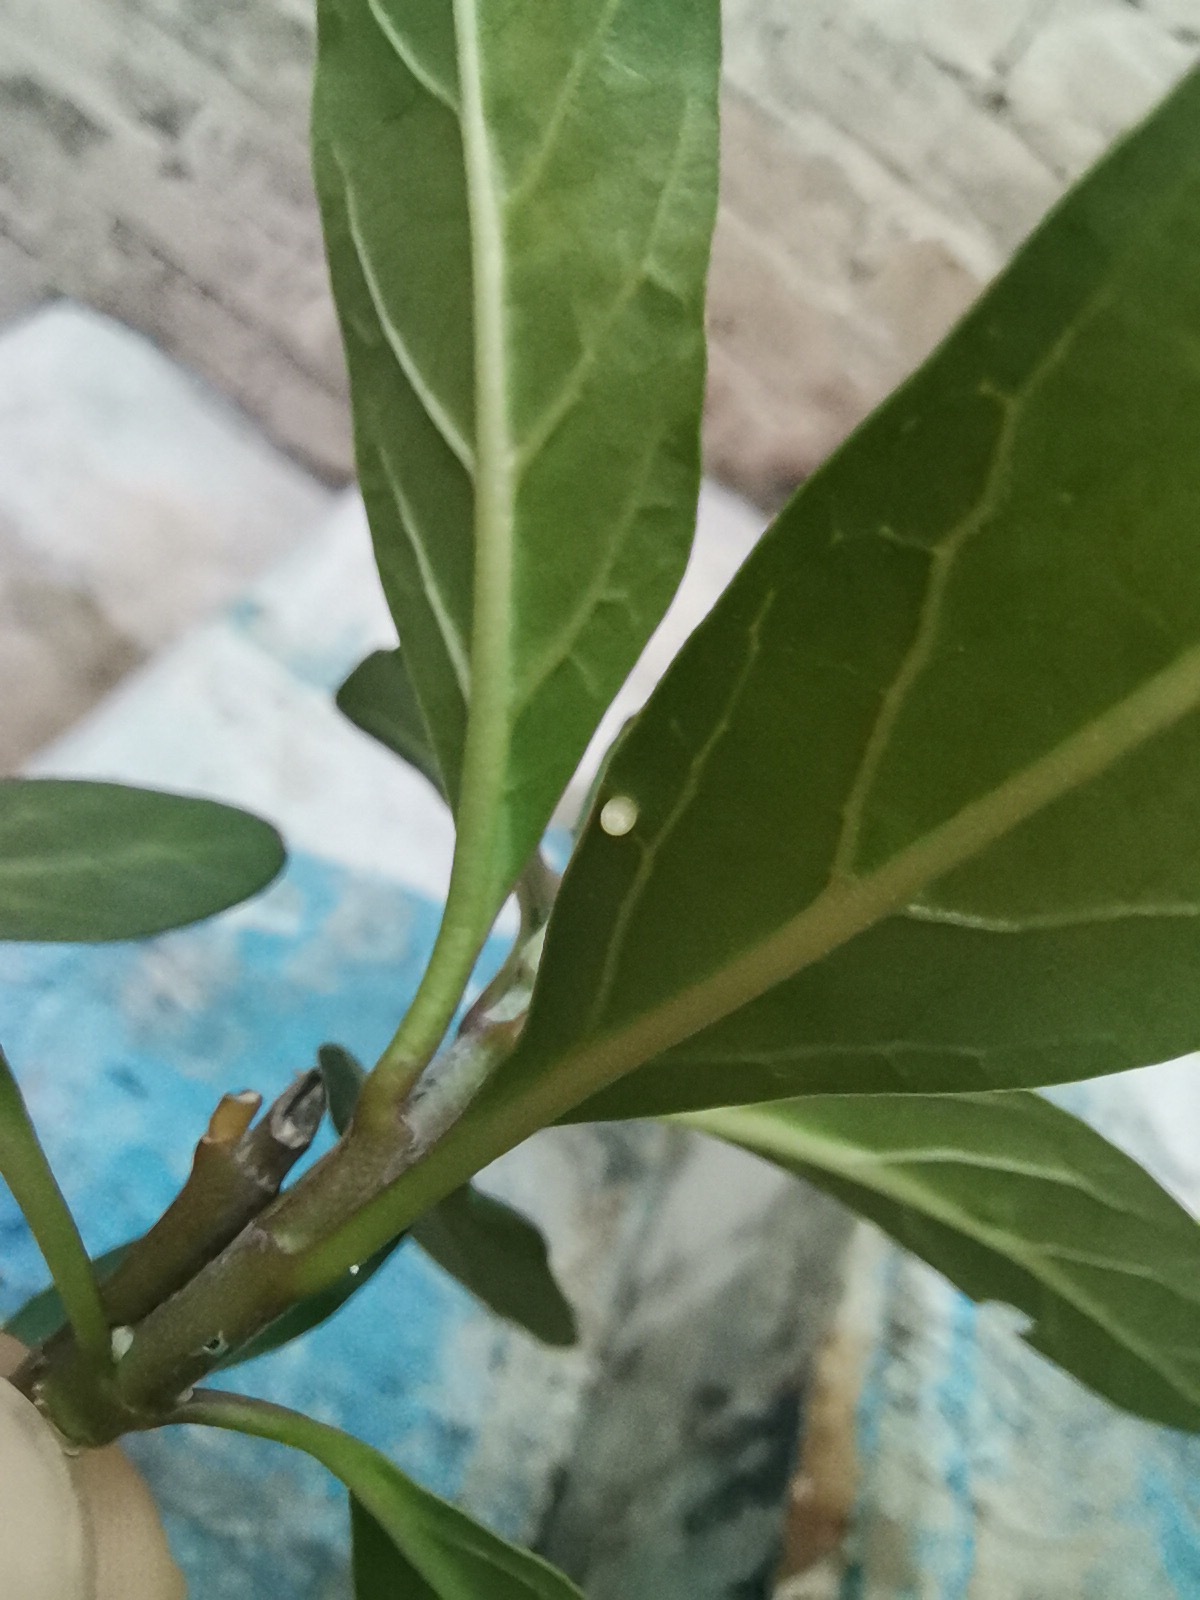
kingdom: Animalia
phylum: Arthropoda
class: Insecta
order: Lepidoptera
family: Nymphalidae
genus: Danaus
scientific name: Danaus plexippus
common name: Monarch
